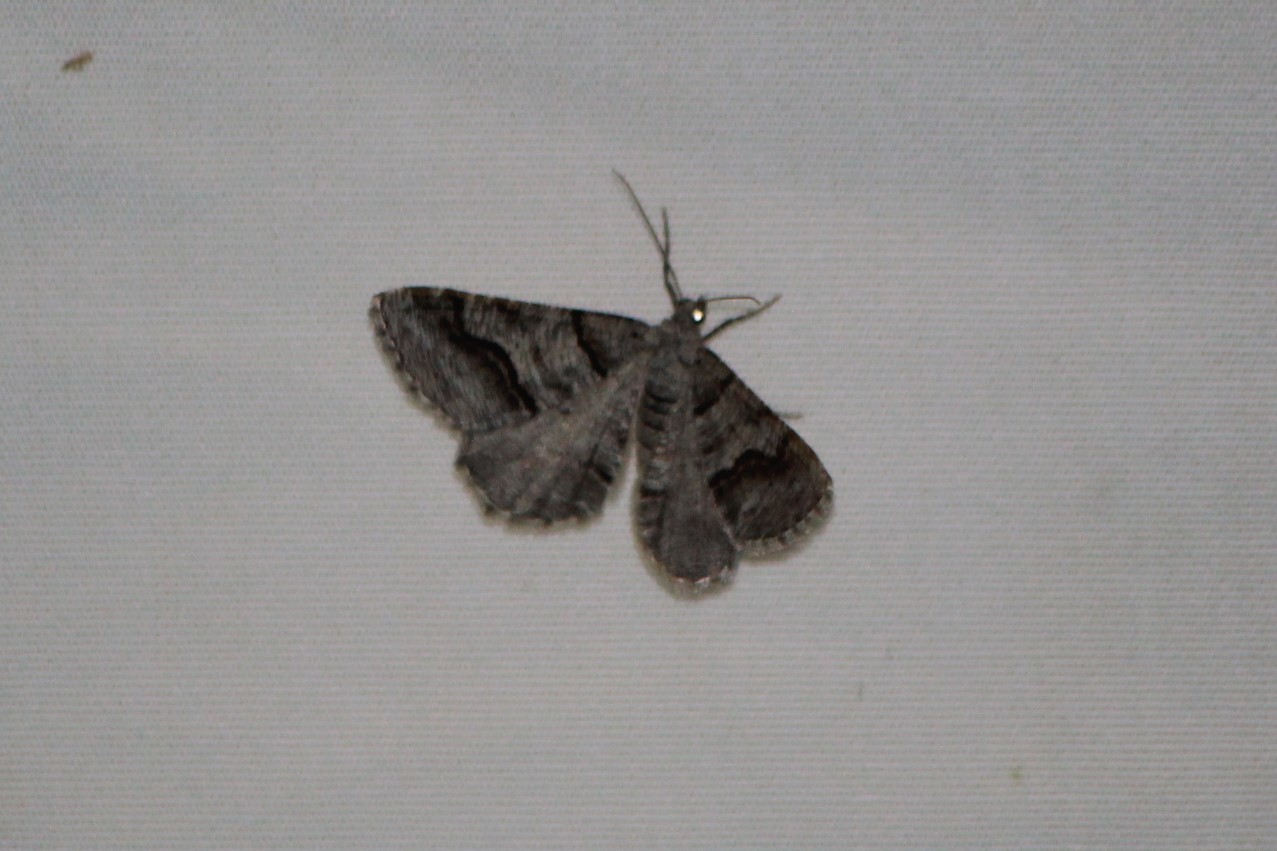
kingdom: Animalia
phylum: Arthropoda
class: Insecta
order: Lepidoptera
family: Geometridae
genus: Digrammia
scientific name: Digrammia continuata
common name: Curve-lined angle
